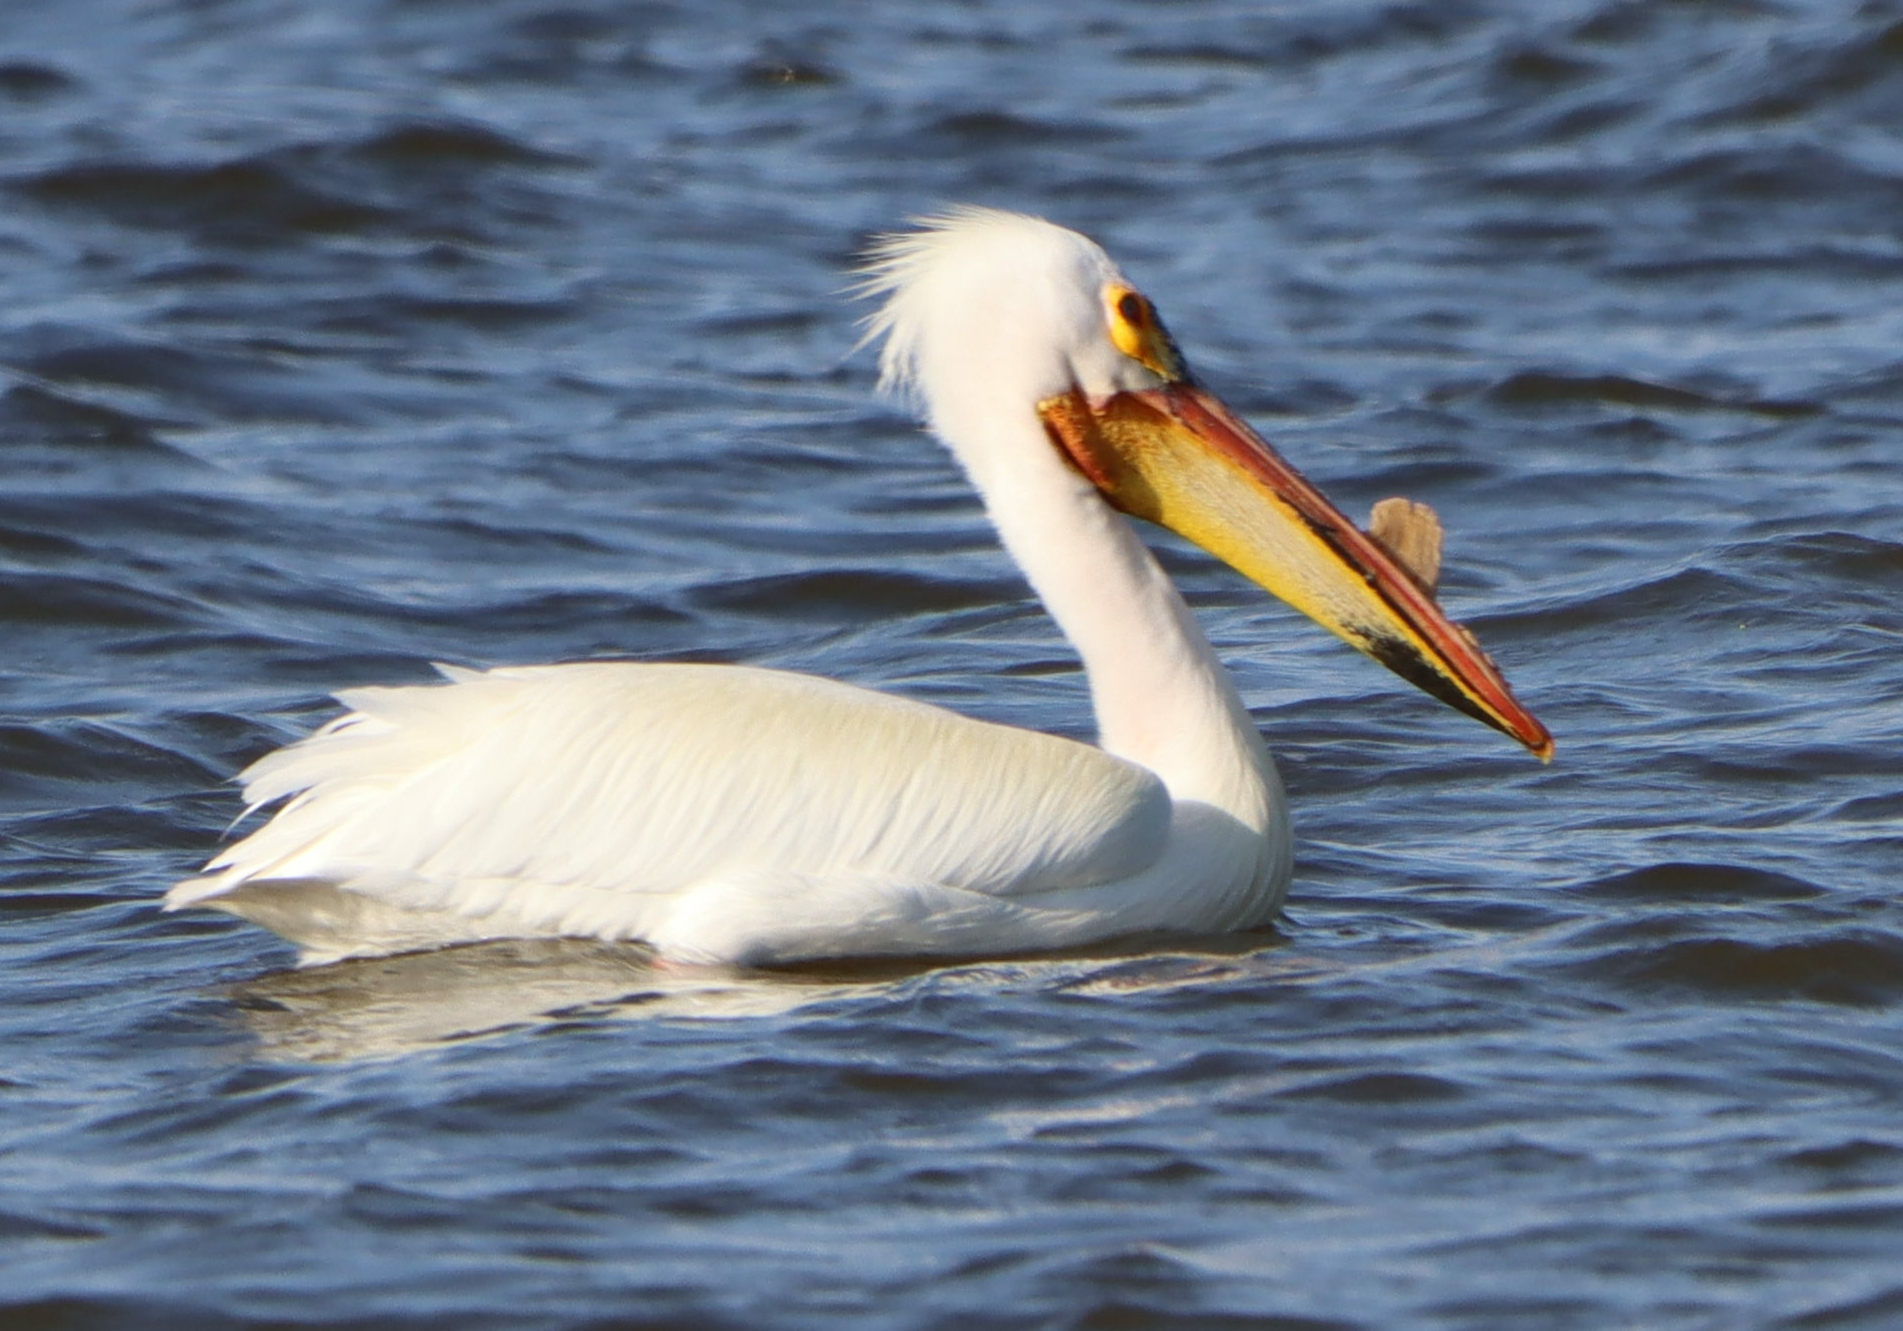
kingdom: Animalia
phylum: Chordata
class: Aves
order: Pelecaniformes
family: Pelecanidae
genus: Pelecanus
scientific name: Pelecanus erythrorhynchos
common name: American white pelican
